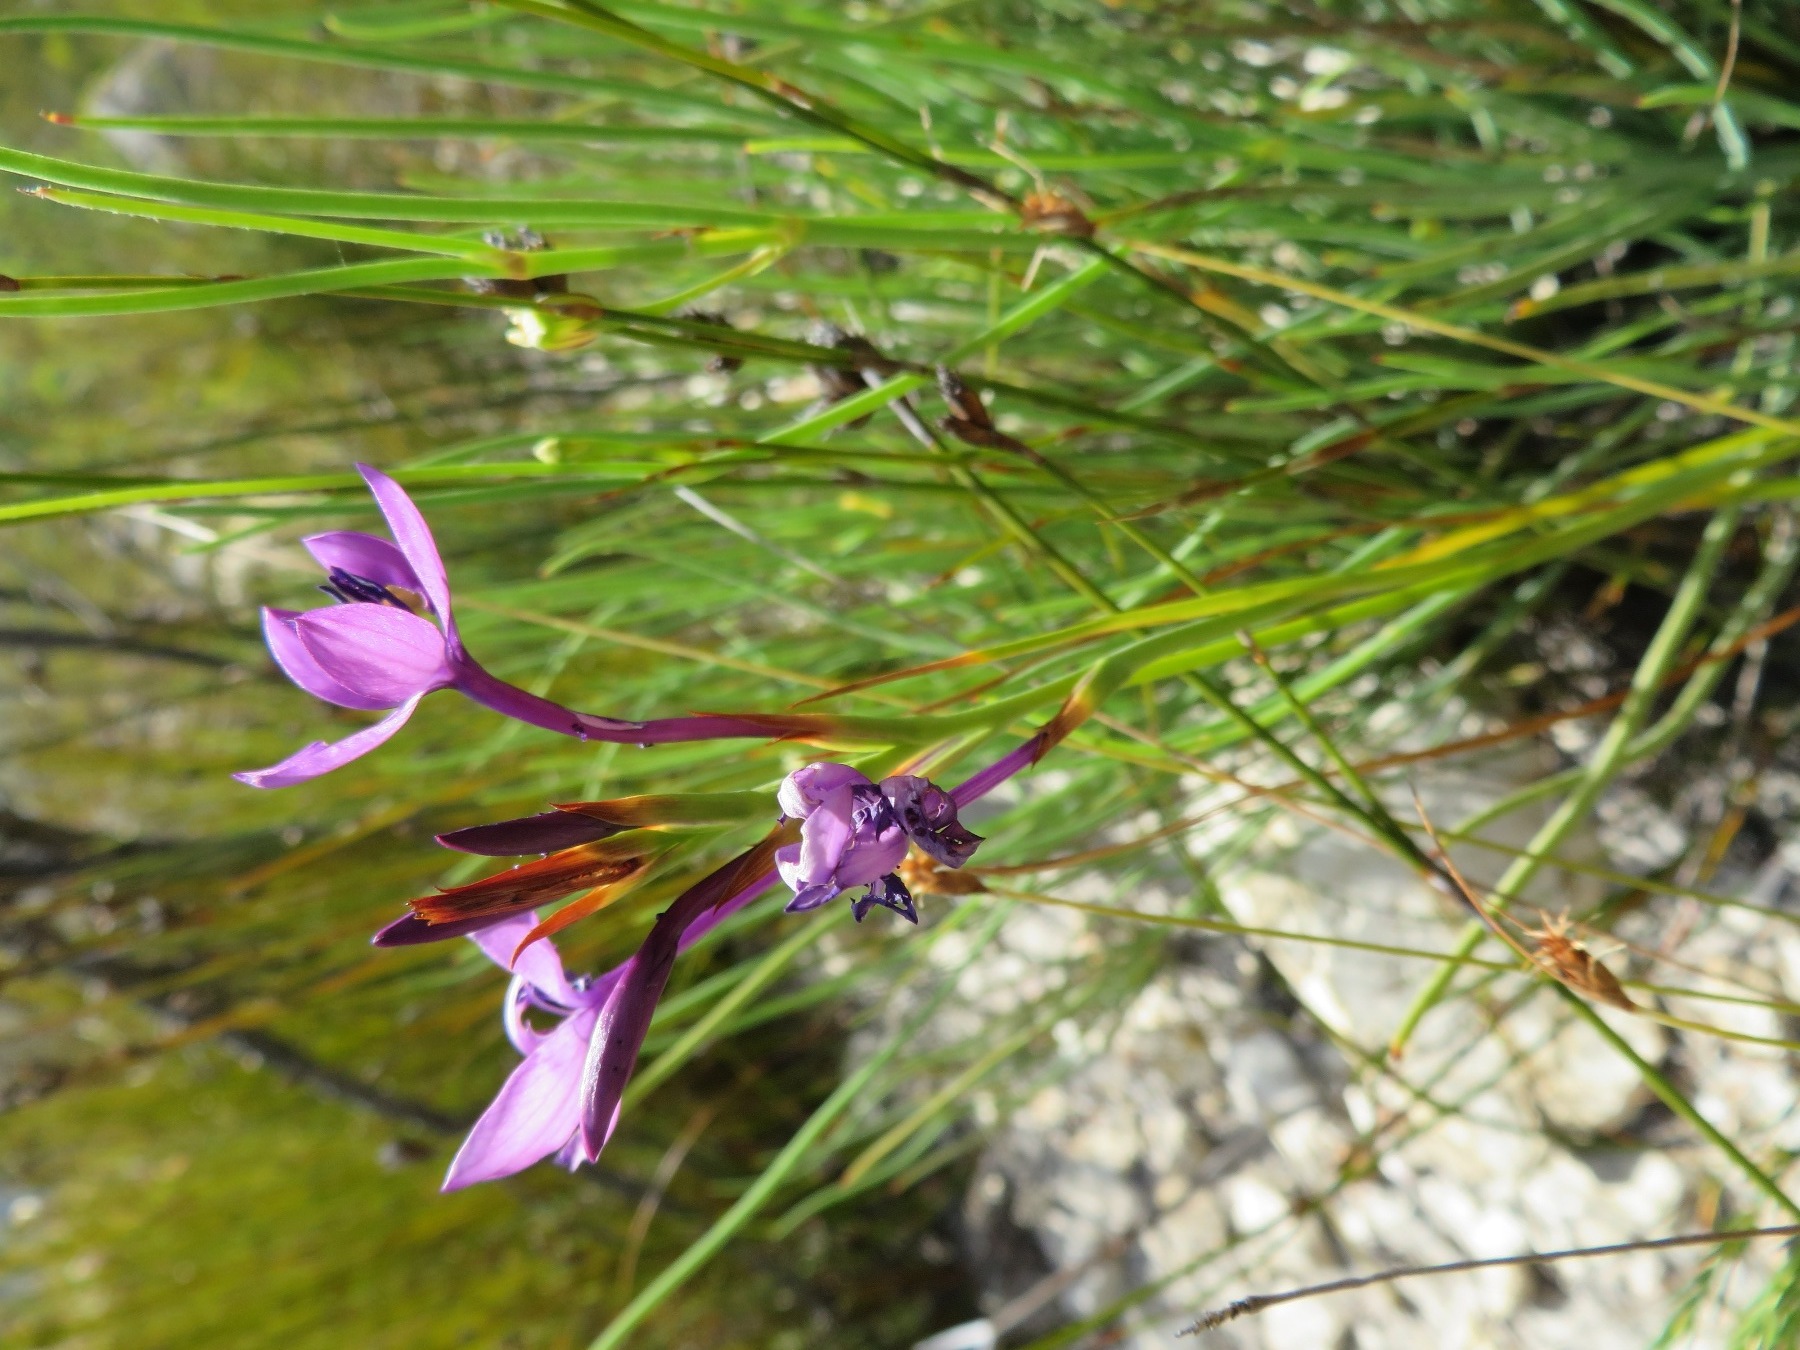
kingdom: Plantae
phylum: Tracheophyta
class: Liliopsida
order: Asparagales
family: Iridaceae
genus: Thereianthus
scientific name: Thereianthus longicollis
